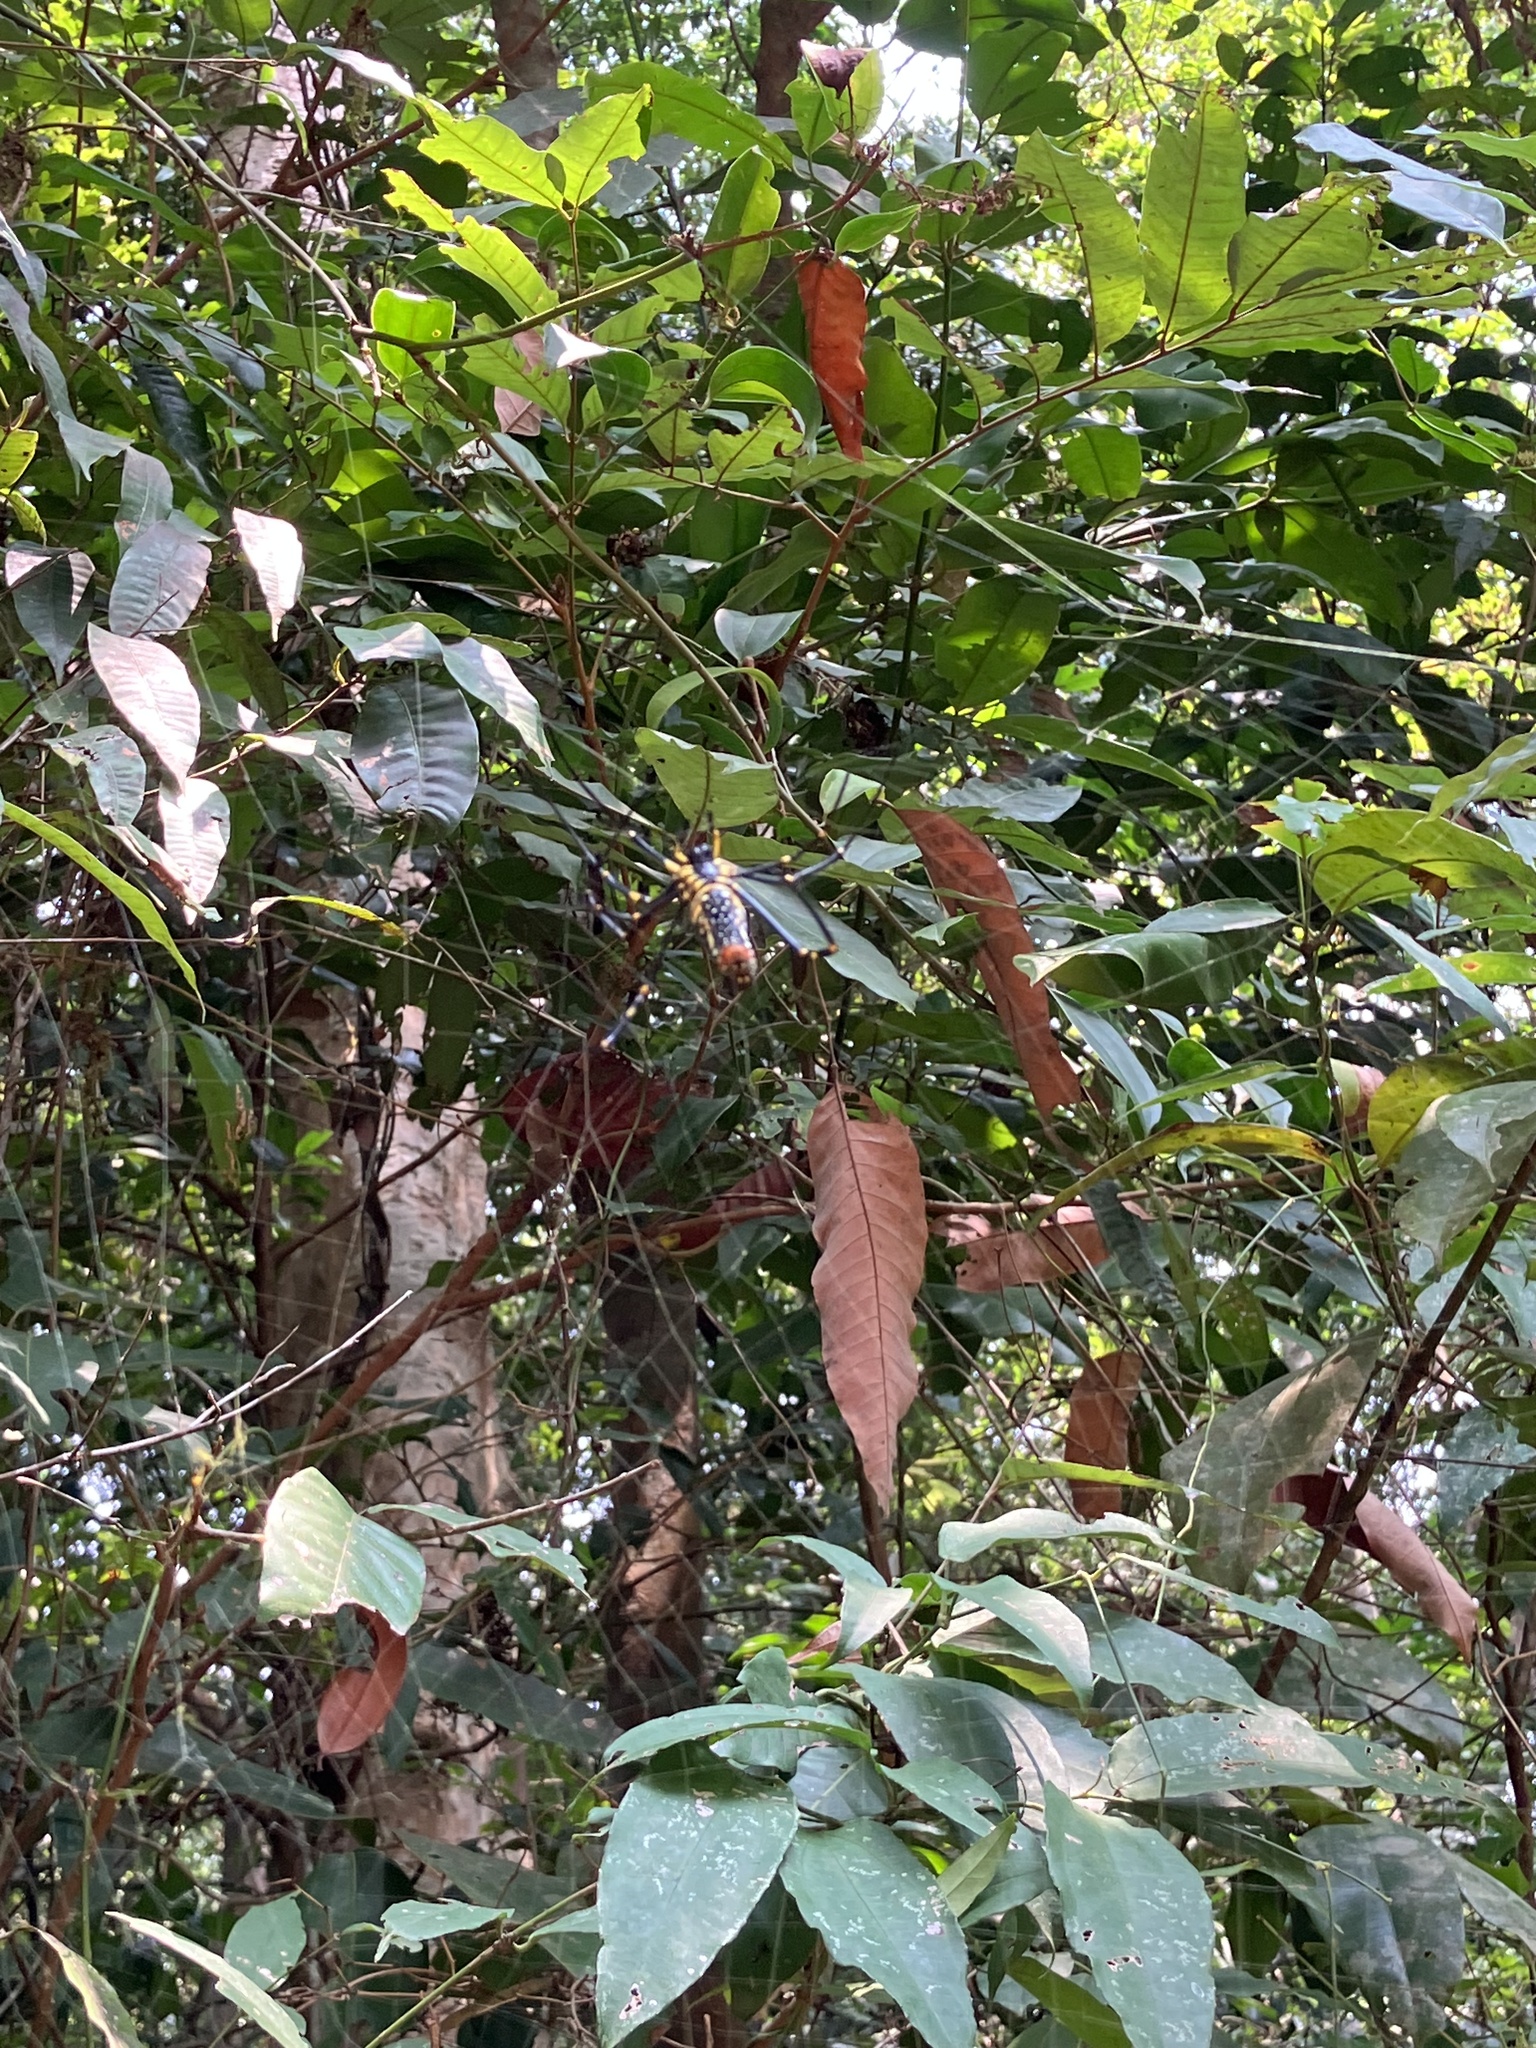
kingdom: Animalia
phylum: Arthropoda
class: Arachnida
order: Araneae
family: Araneidae
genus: Nephila
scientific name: Nephila pilipes
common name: Giant golden orb weaver
